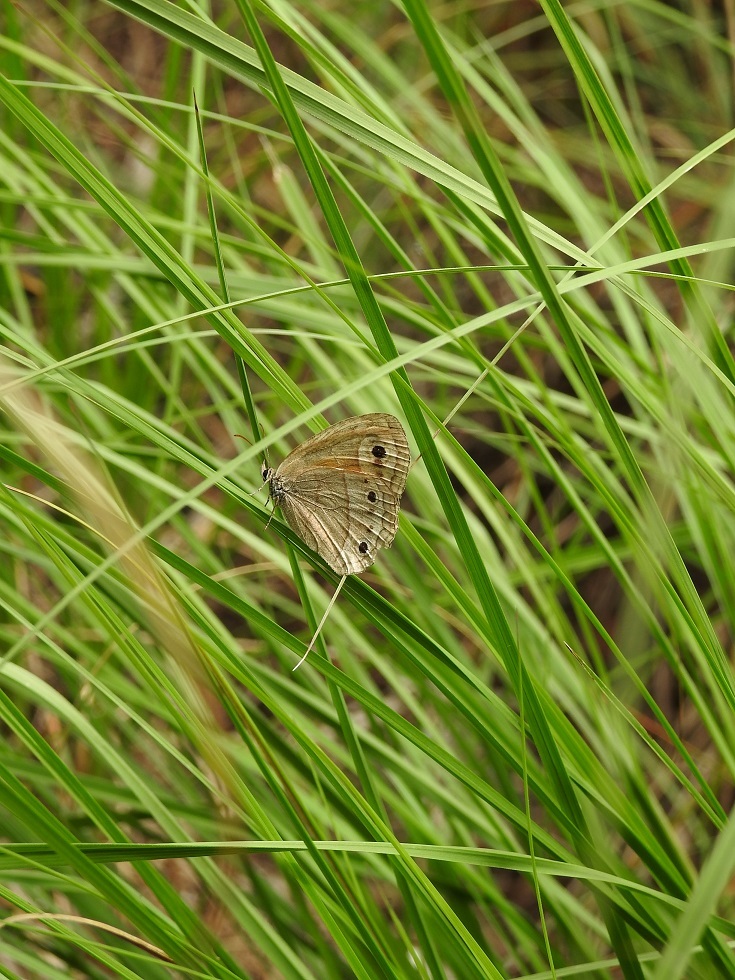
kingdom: Animalia
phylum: Arthropoda
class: Insecta
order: Lepidoptera
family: Nymphalidae
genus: Euptychia
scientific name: Euptychia
